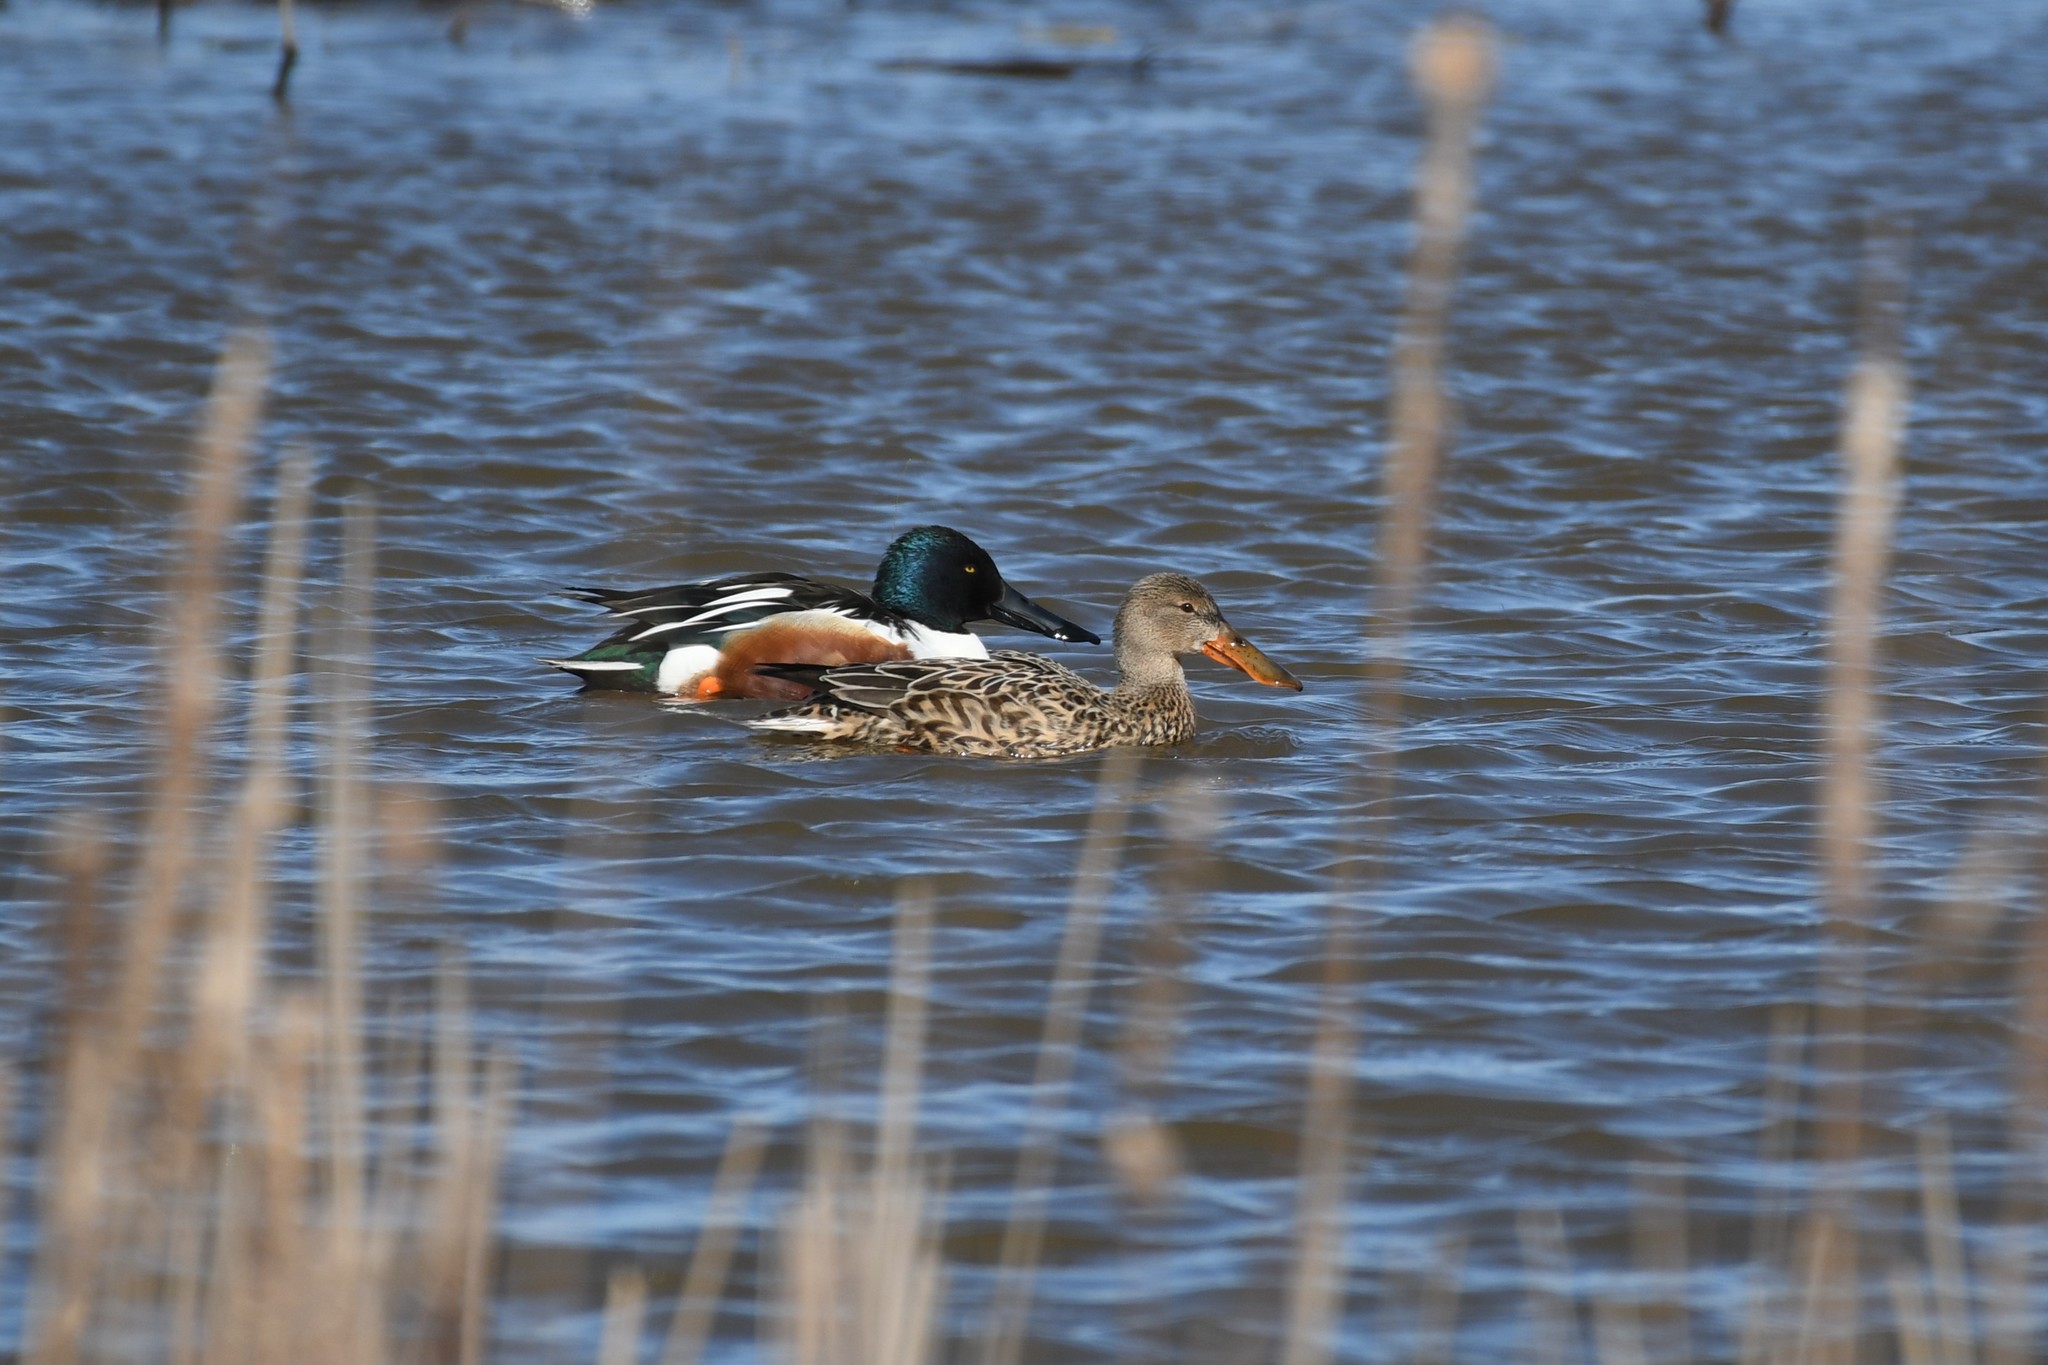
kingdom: Animalia
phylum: Chordata
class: Aves
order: Anseriformes
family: Anatidae
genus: Spatula
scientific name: Spatula clypeata
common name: Northern shoveler
